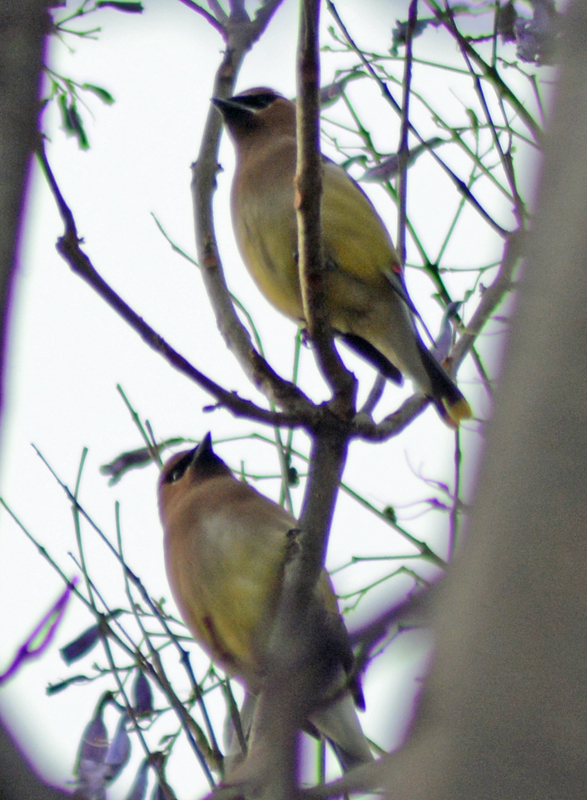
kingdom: Animalia
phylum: Chordata
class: Aves
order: Passeriformes
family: Bombycillidae
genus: Bombycilla
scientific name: Bombycilla cedrorum
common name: Cedar waxwing
